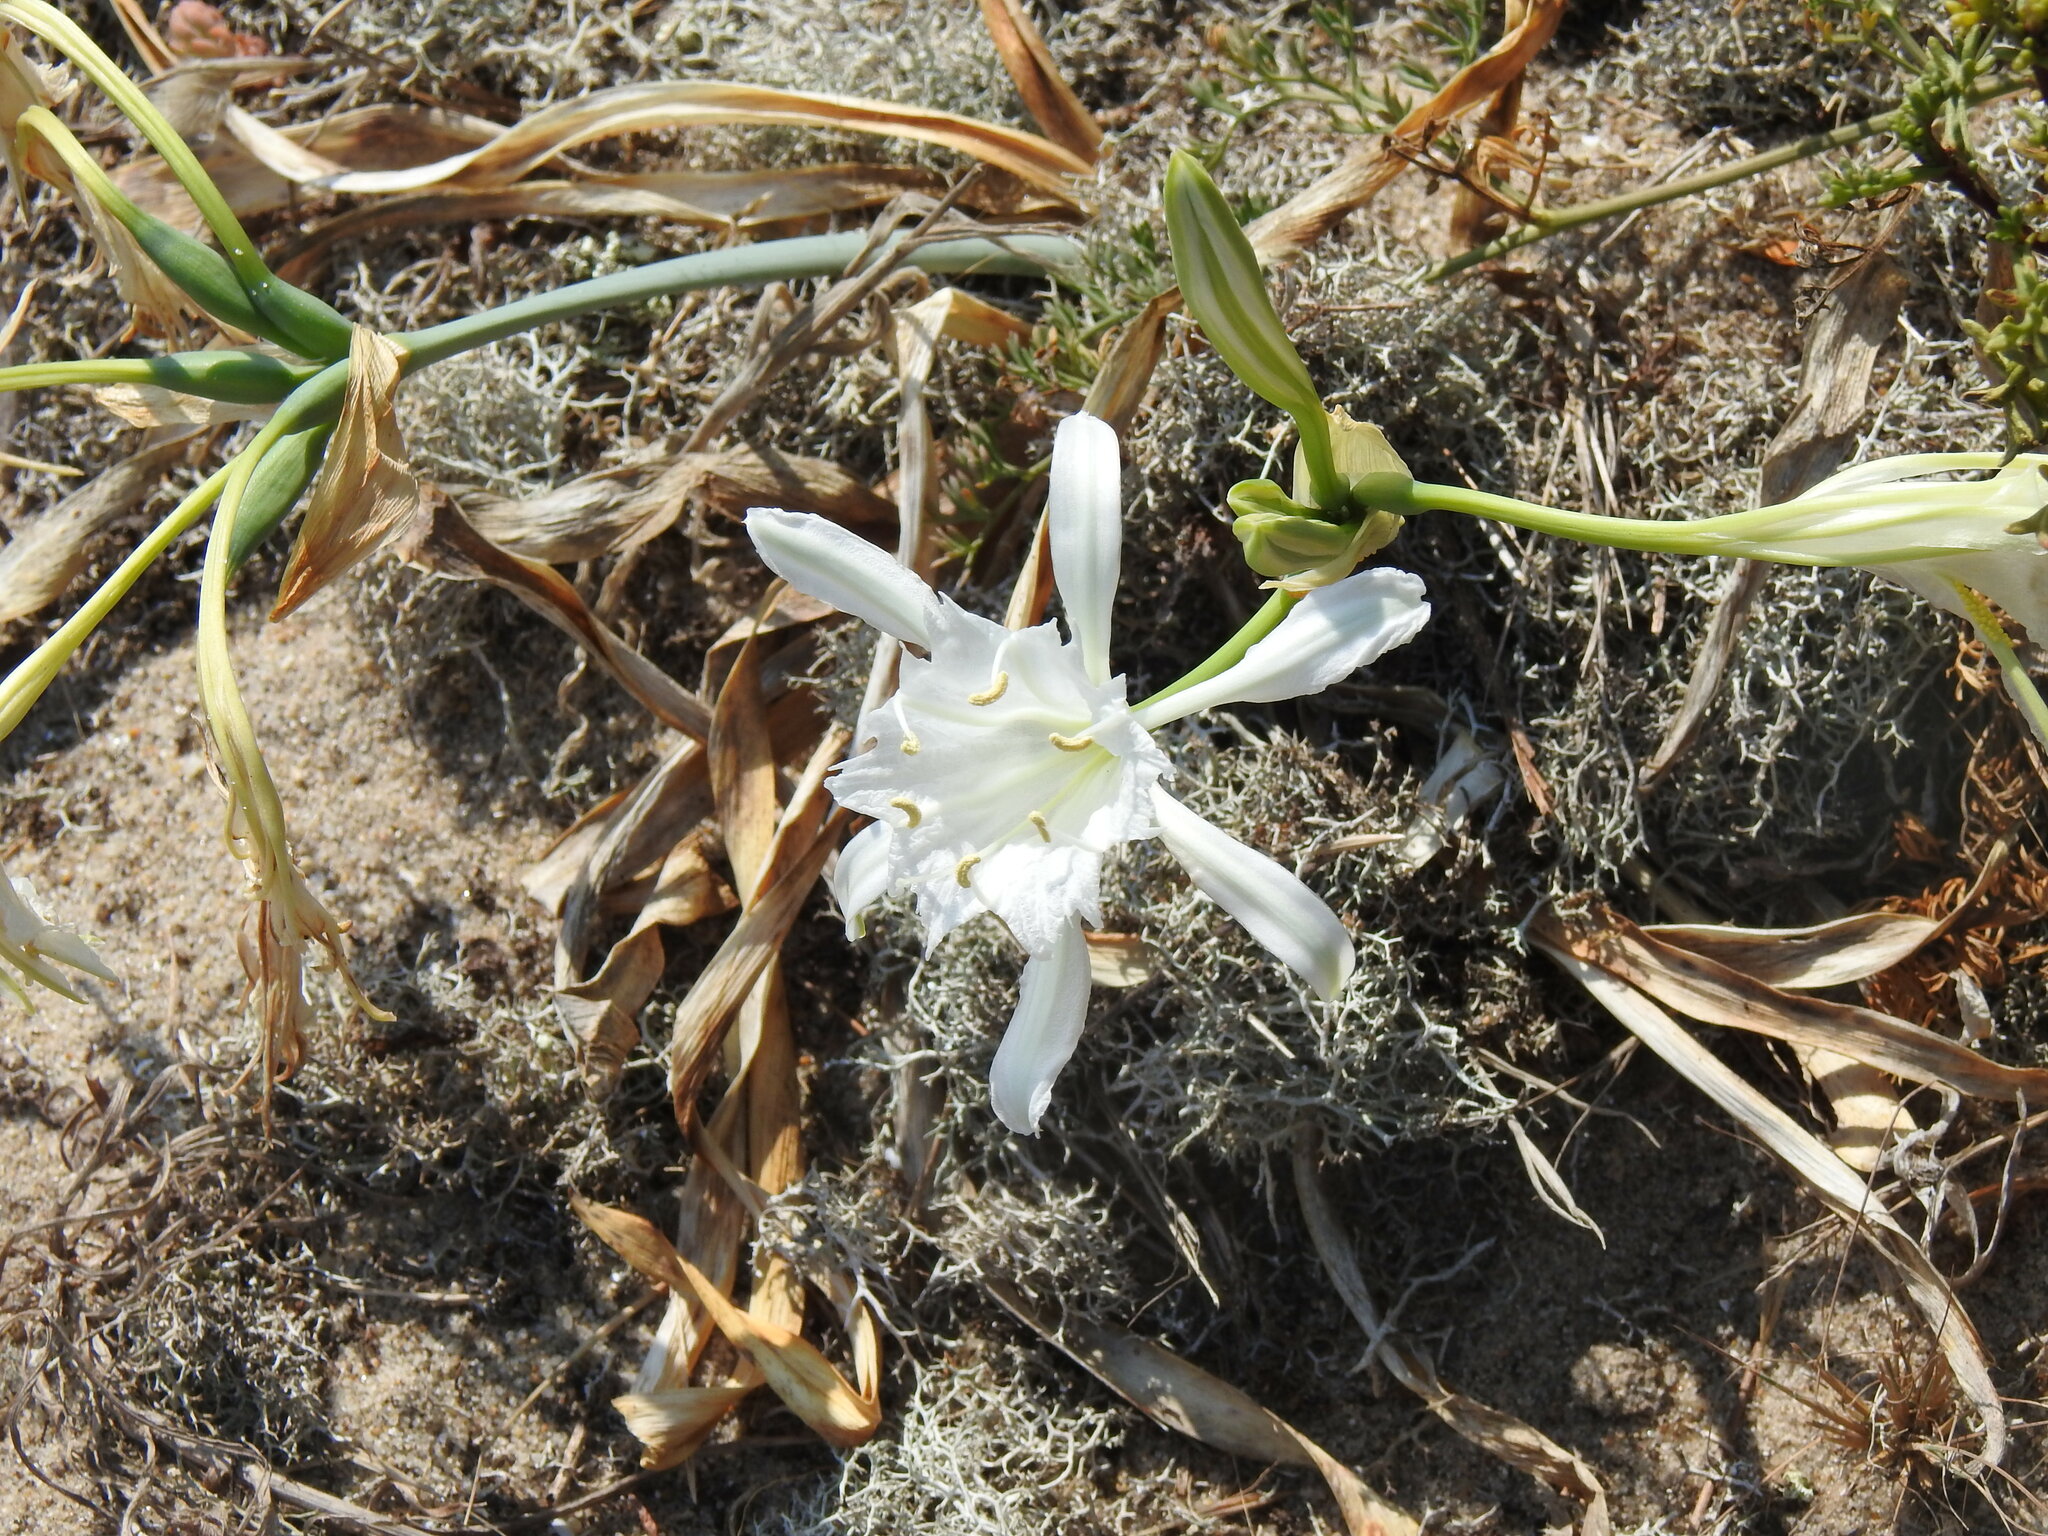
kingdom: Plantae
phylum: Tracheophyta
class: Liliopsida
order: Asparagales
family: Amaryllidaceae
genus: Pancratium
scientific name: Pancratium maritimum
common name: Sea-daffodil
